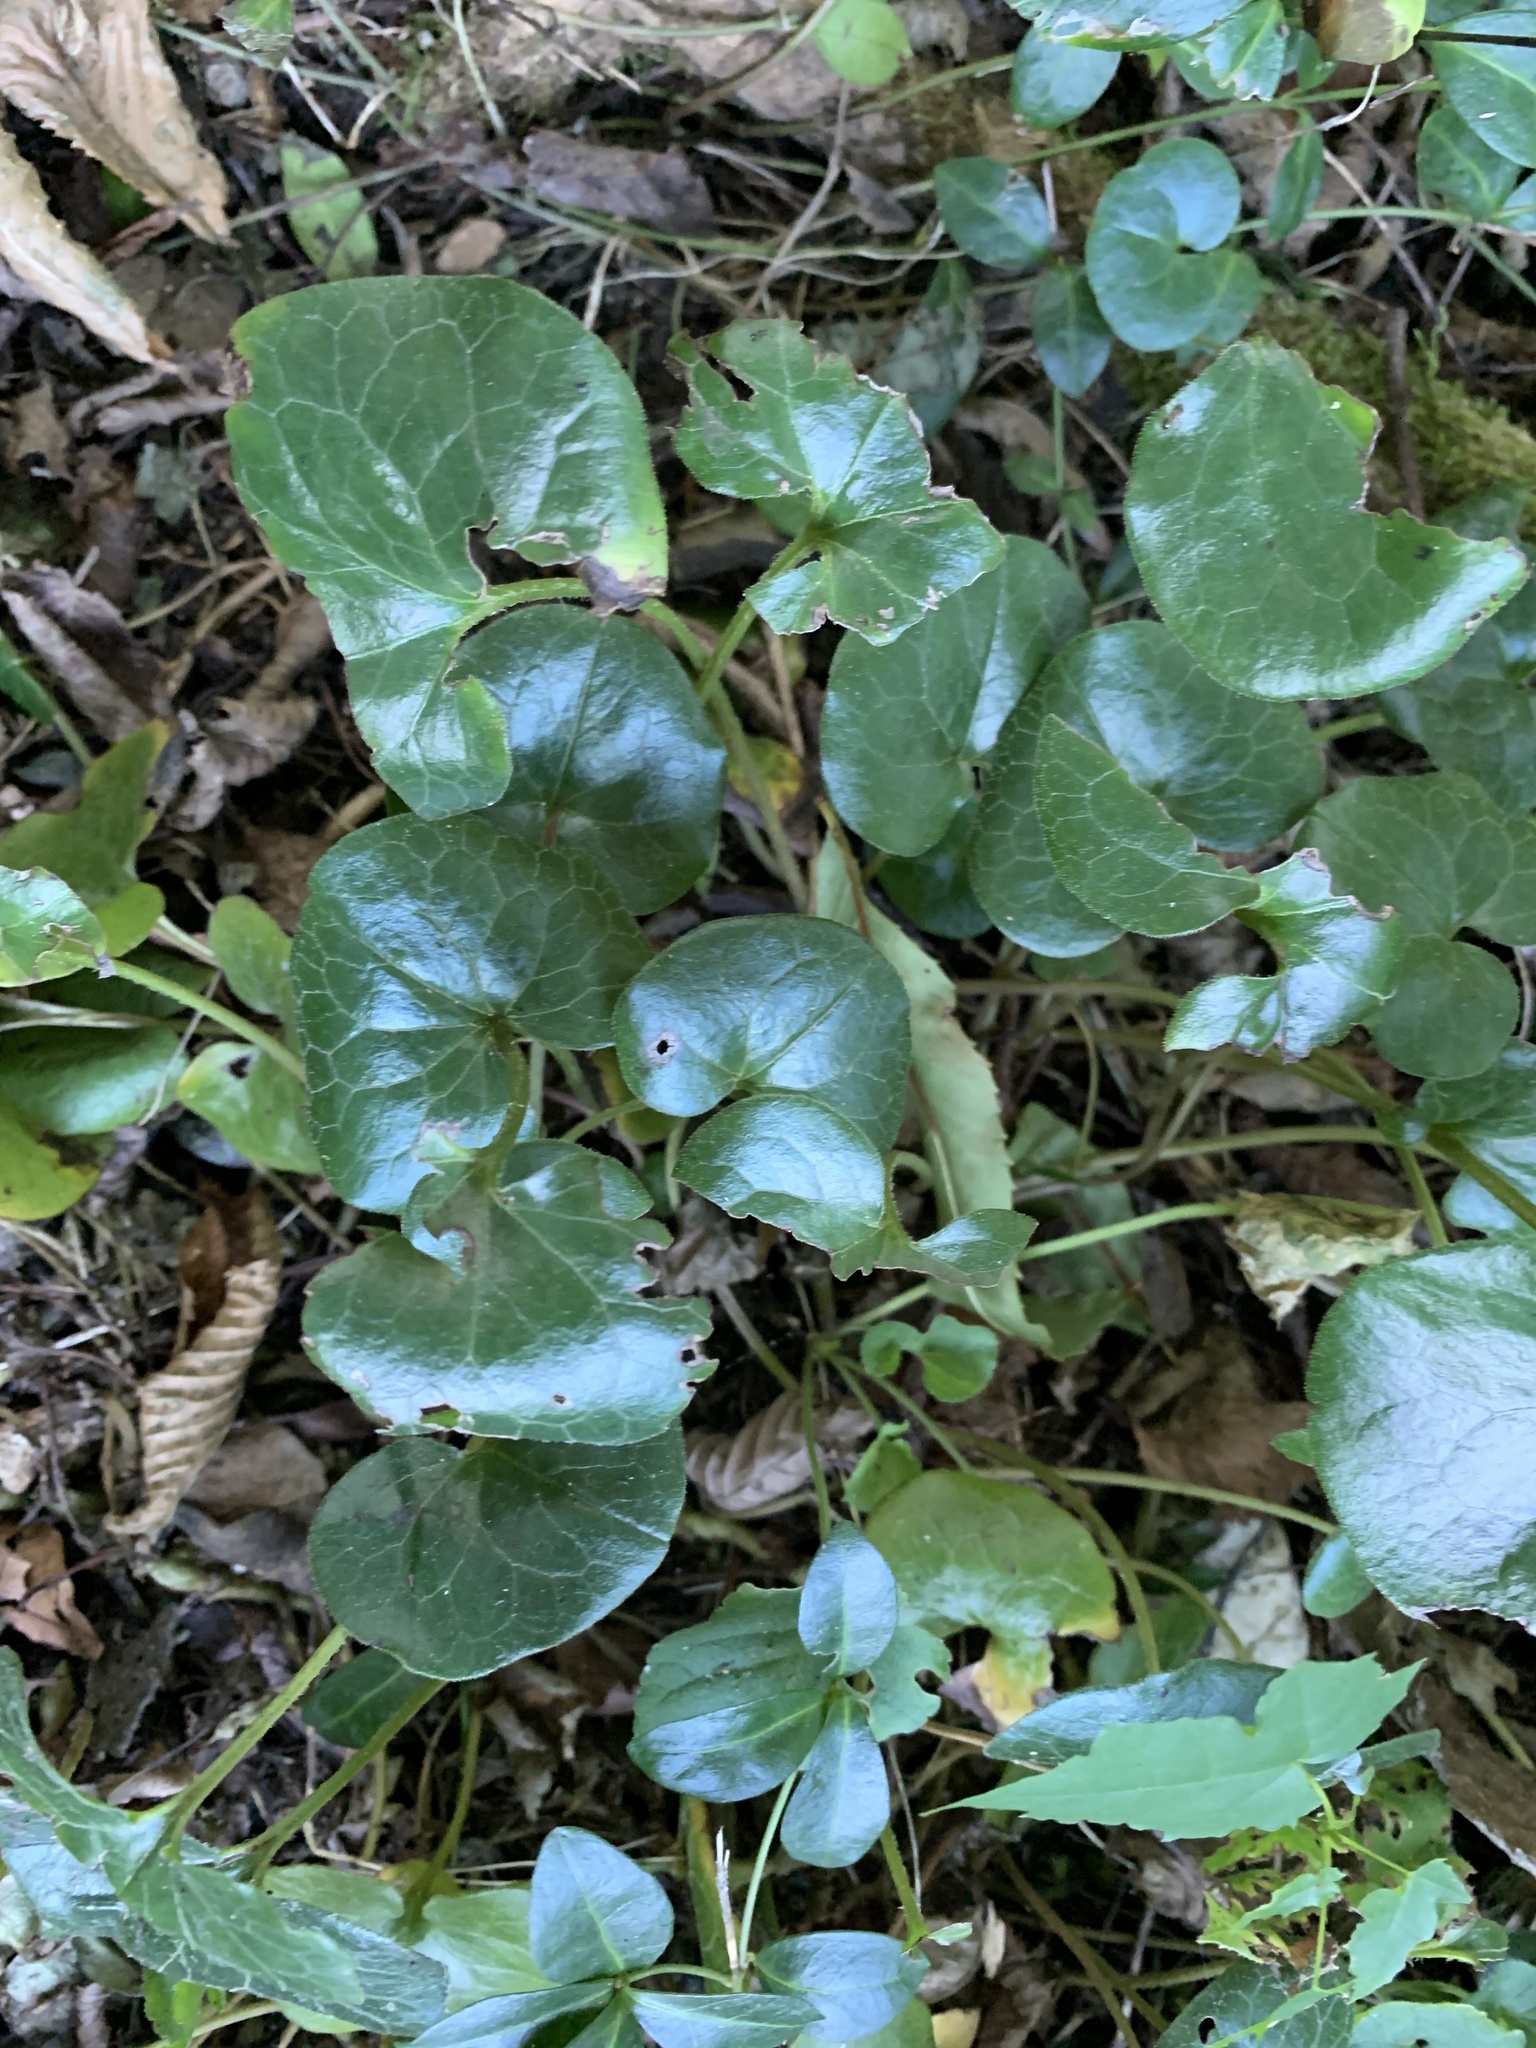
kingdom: Plantae
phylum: Tracheophyta
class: Magnoliopsida
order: Piperales
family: Aristolochiaceae
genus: Asarum
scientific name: Asarum europaeum
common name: Asarabacca
